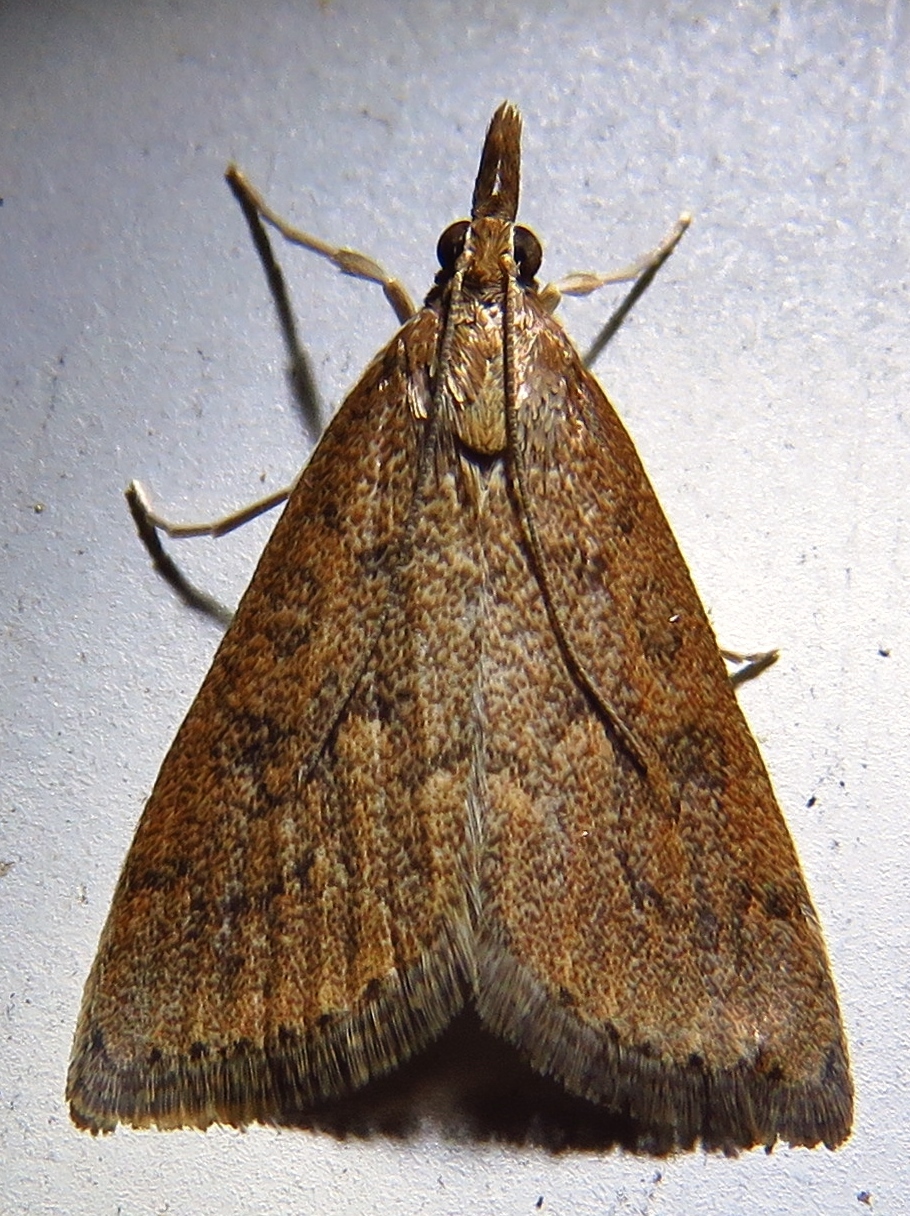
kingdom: Animalia
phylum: Arthropoda
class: Insecta
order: Lepidoptera
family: Crambidae
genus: Udea
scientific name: Udea rubigalis
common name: Celery leaftier moth
